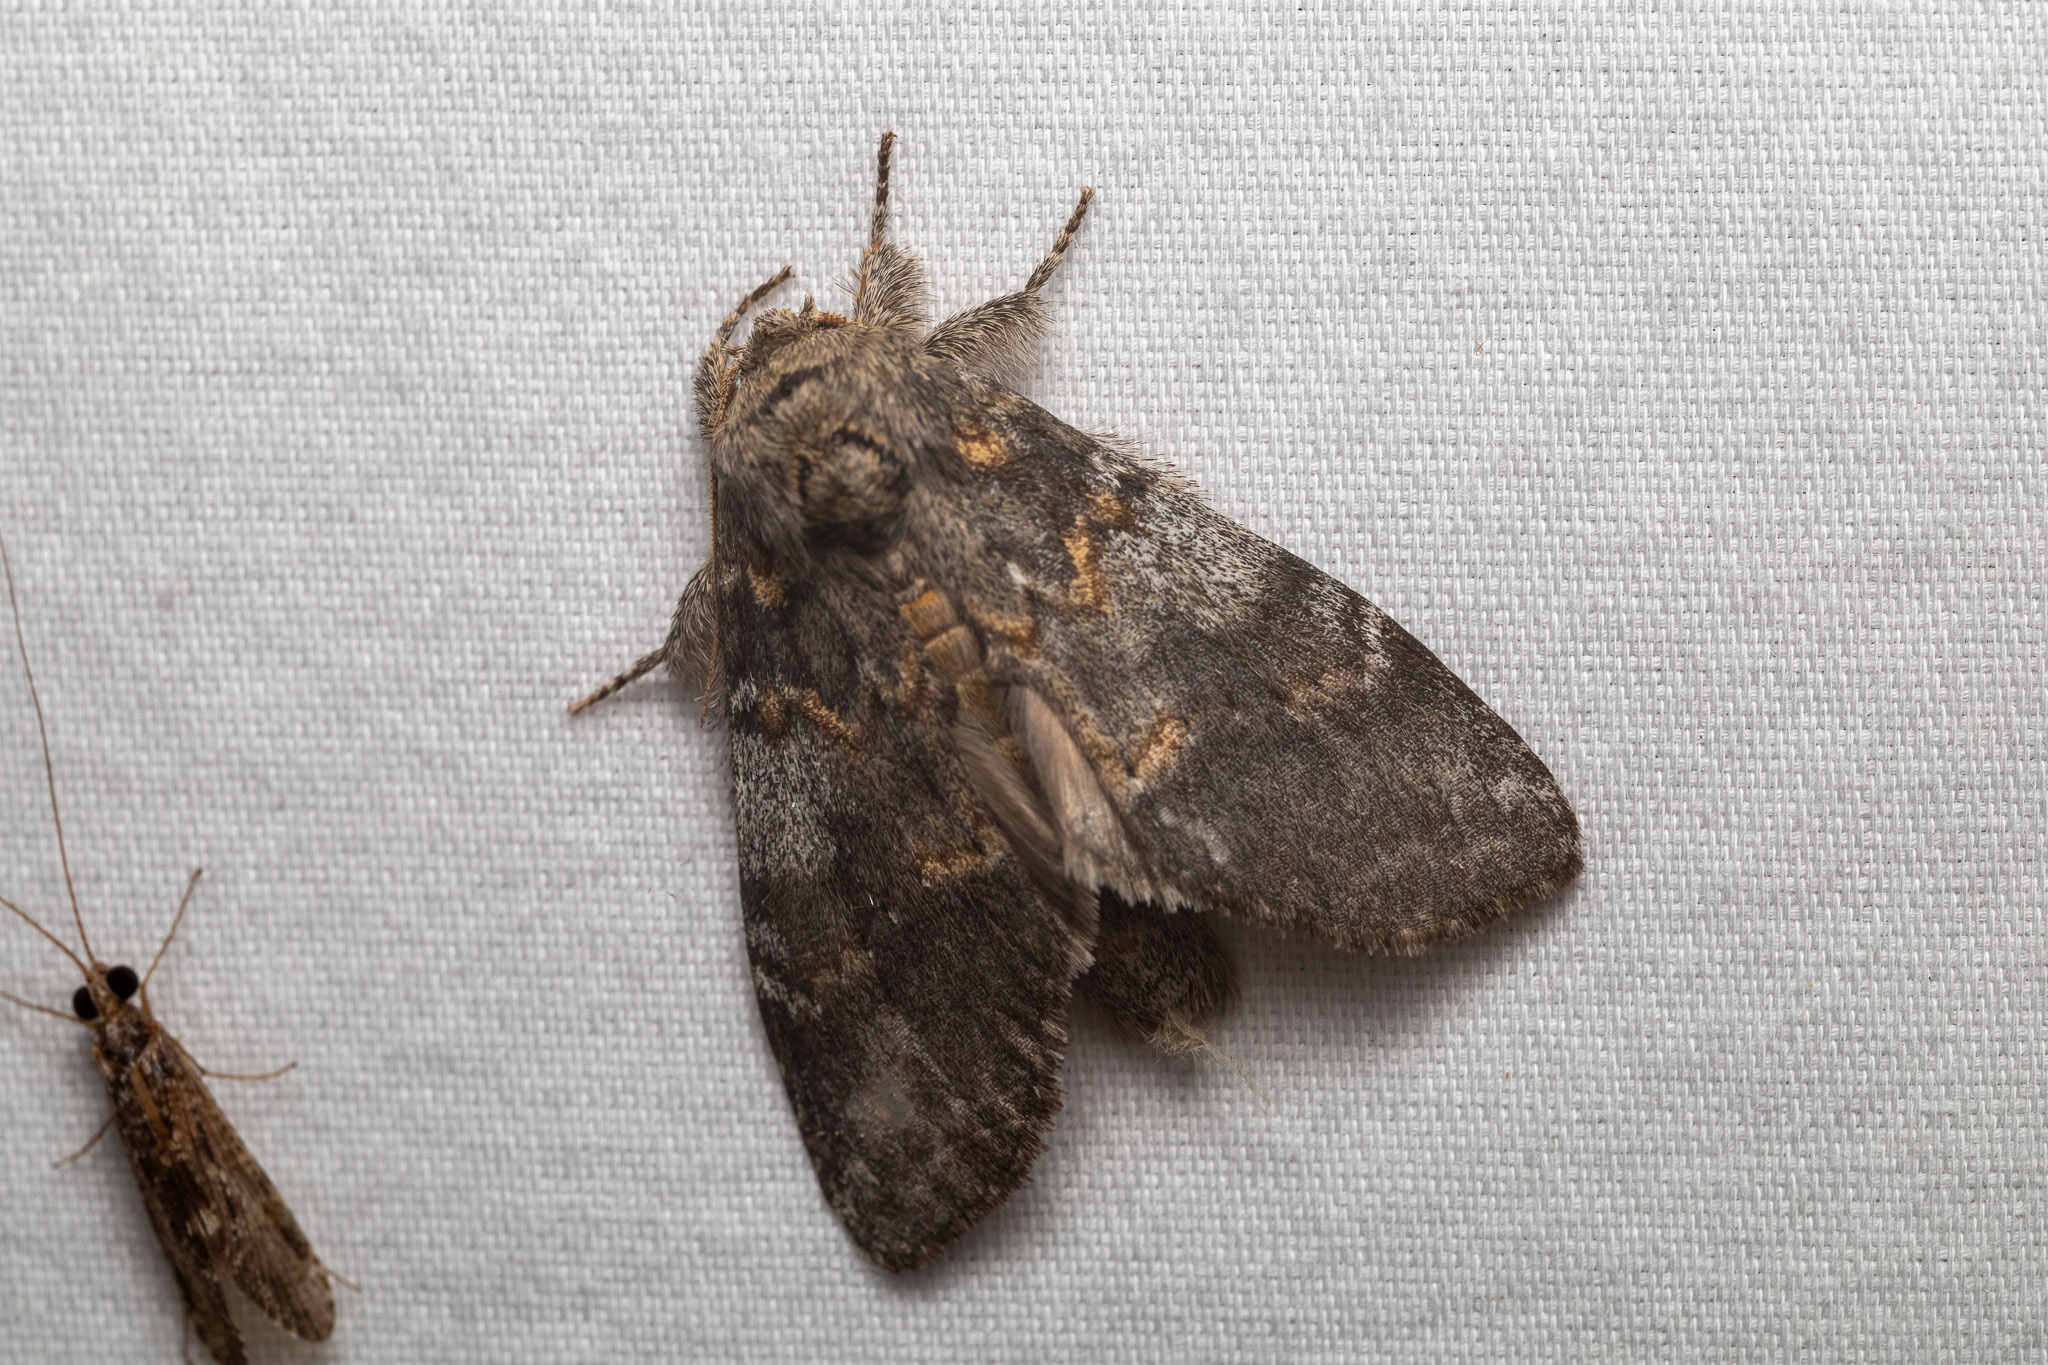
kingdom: Animalia
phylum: Arthropoda
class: Insecta
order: Lepidoptera
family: Notodontidae
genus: Peridea
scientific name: Peridea angulosa
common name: Angulose prominent
